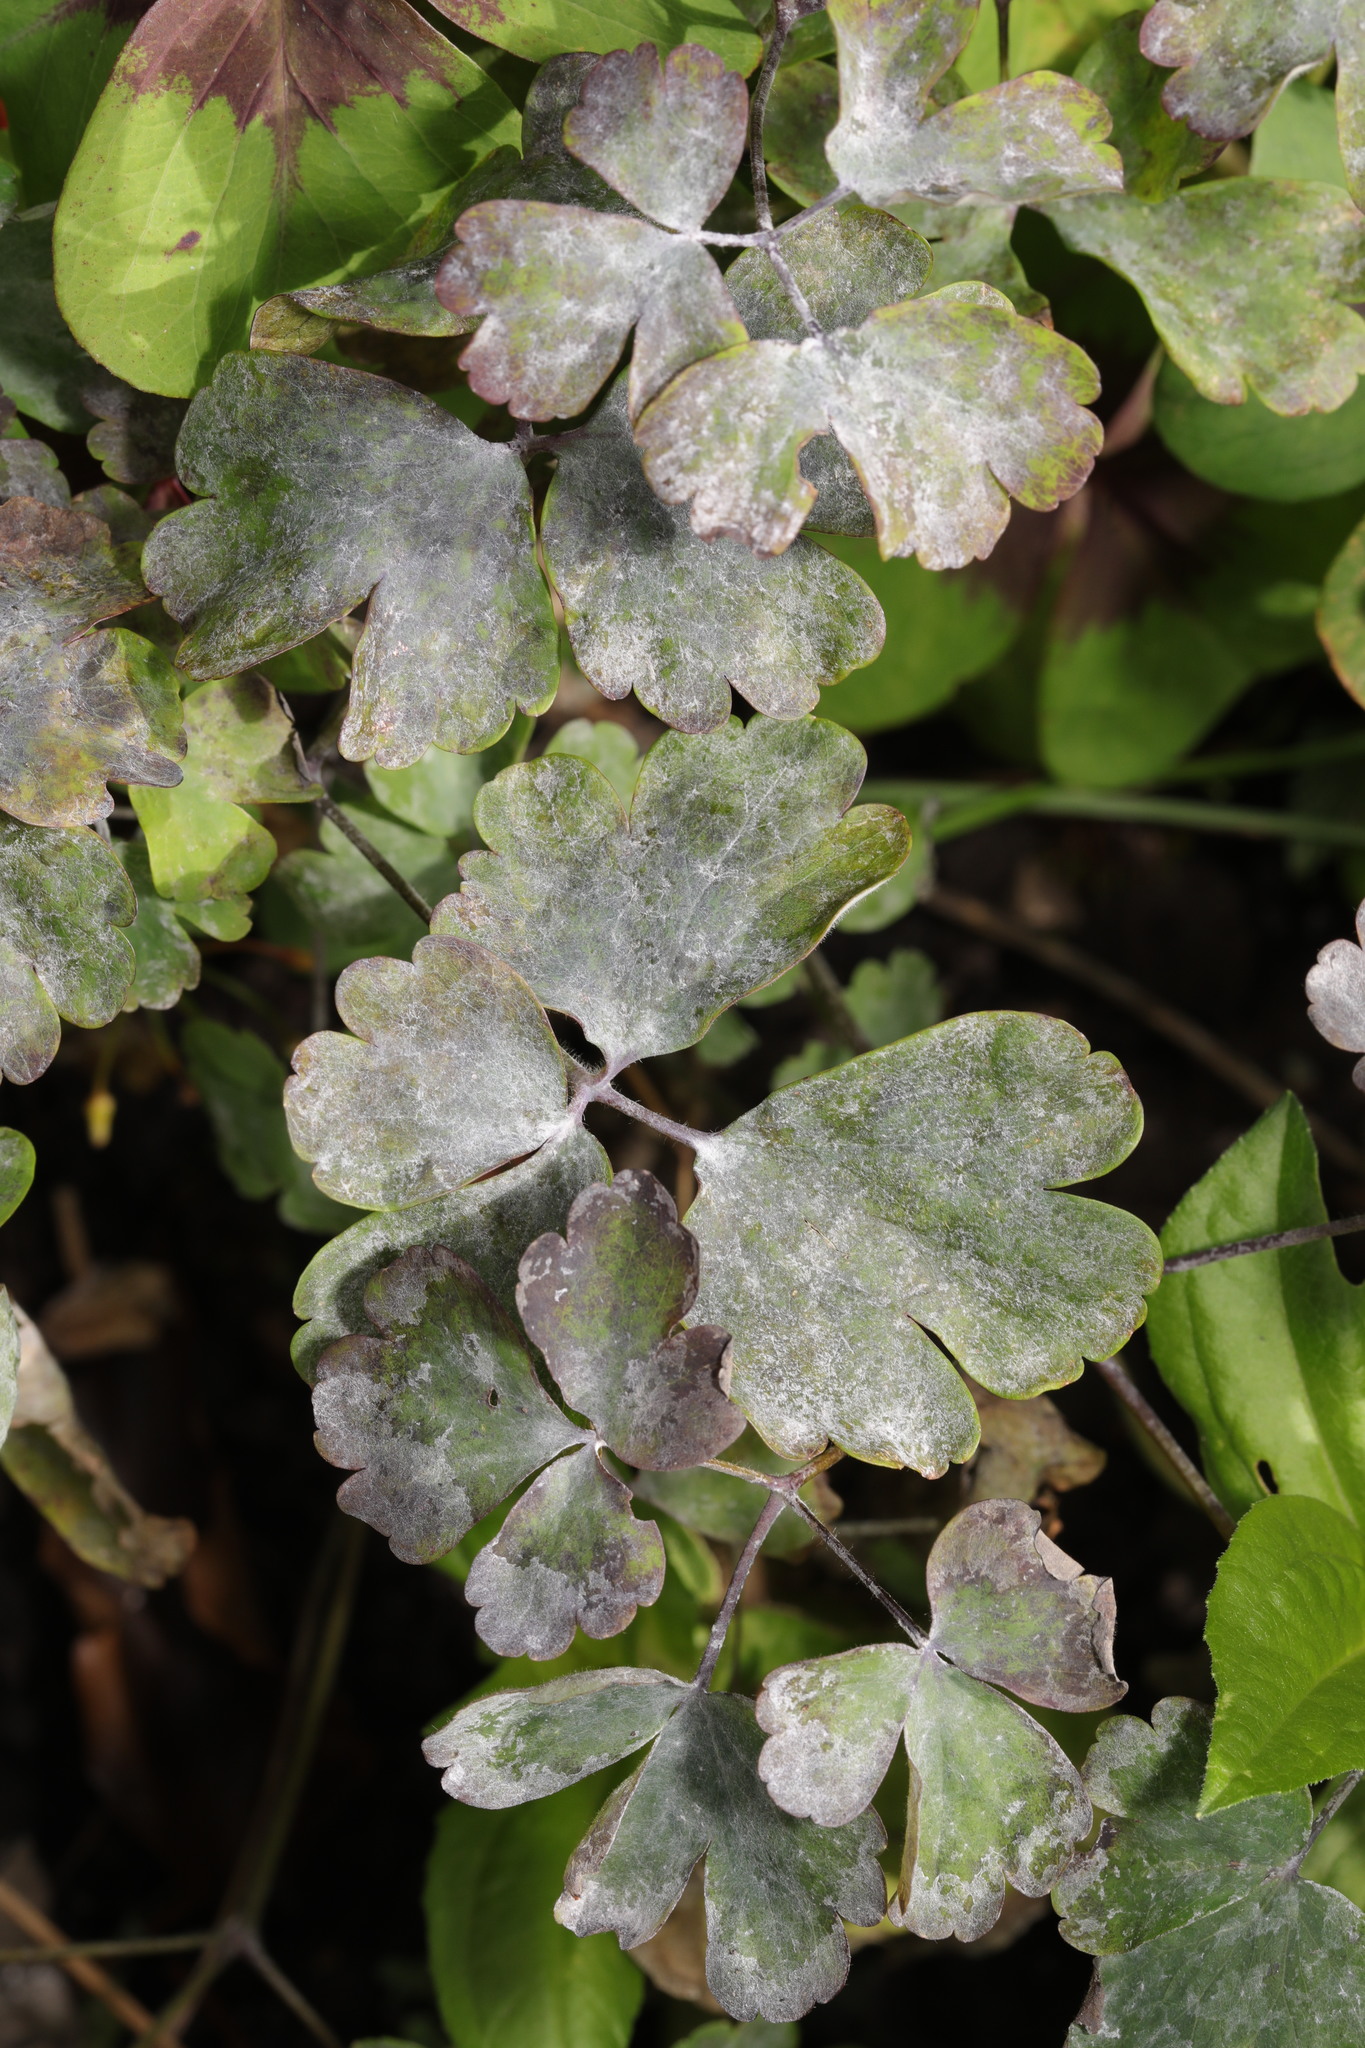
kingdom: Fungi
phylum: Ascomycota
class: Leotiomycetes
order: Helotiales
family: Erysiphaceae
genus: Erysiphe
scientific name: Erysiphe aquilegiae
